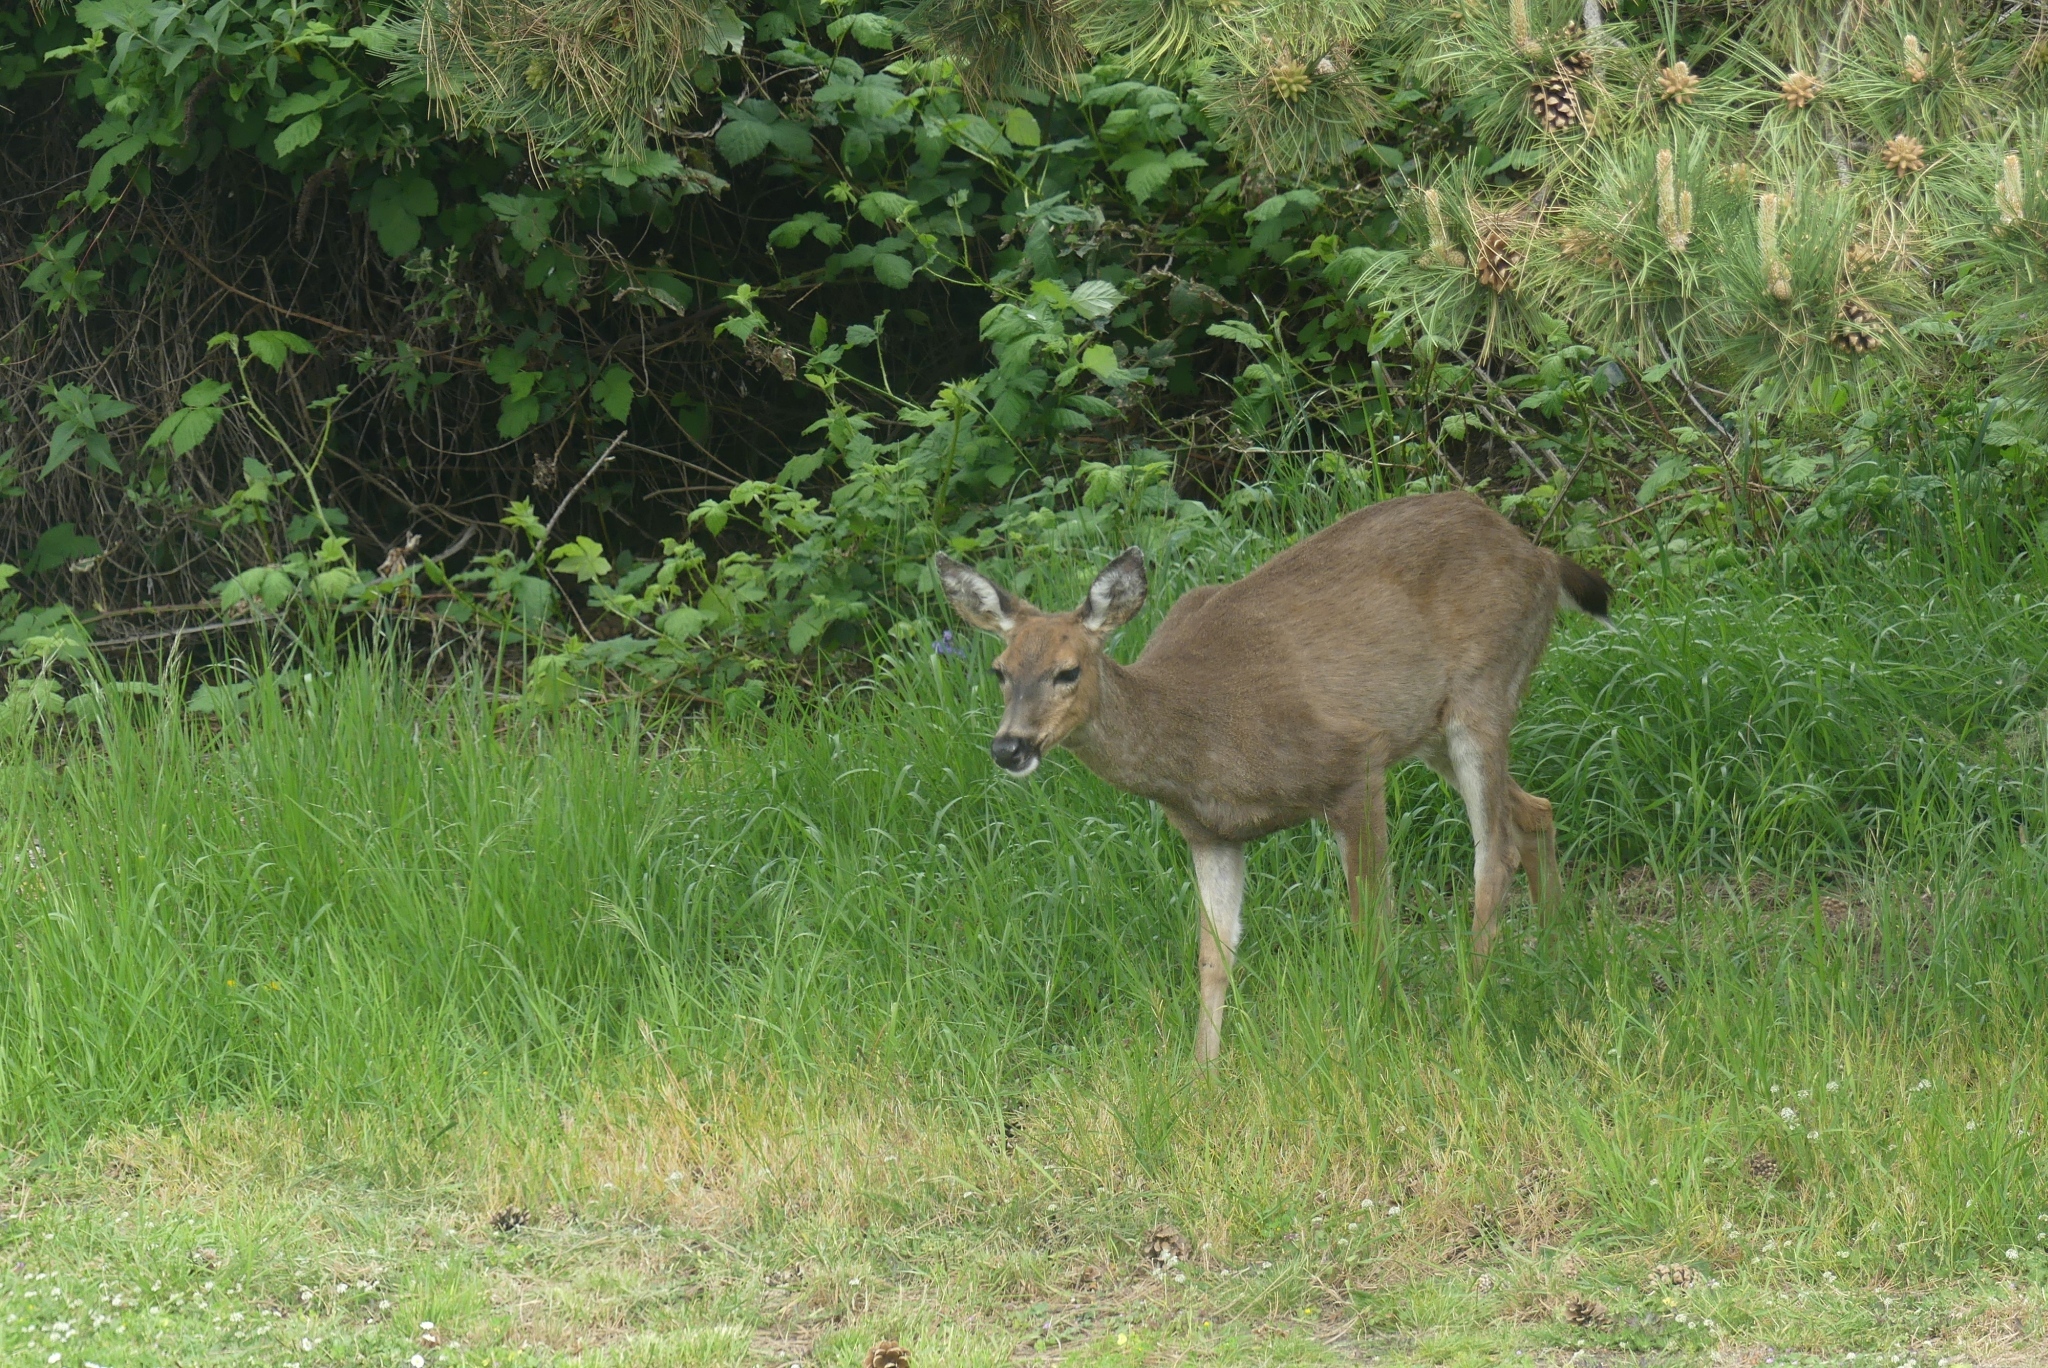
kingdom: Animalia
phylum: Chordata
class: Mammalia
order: Artiodactyla
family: Cervidae
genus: Odocoileus
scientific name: Odocoileus hemionus
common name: Mule deer
